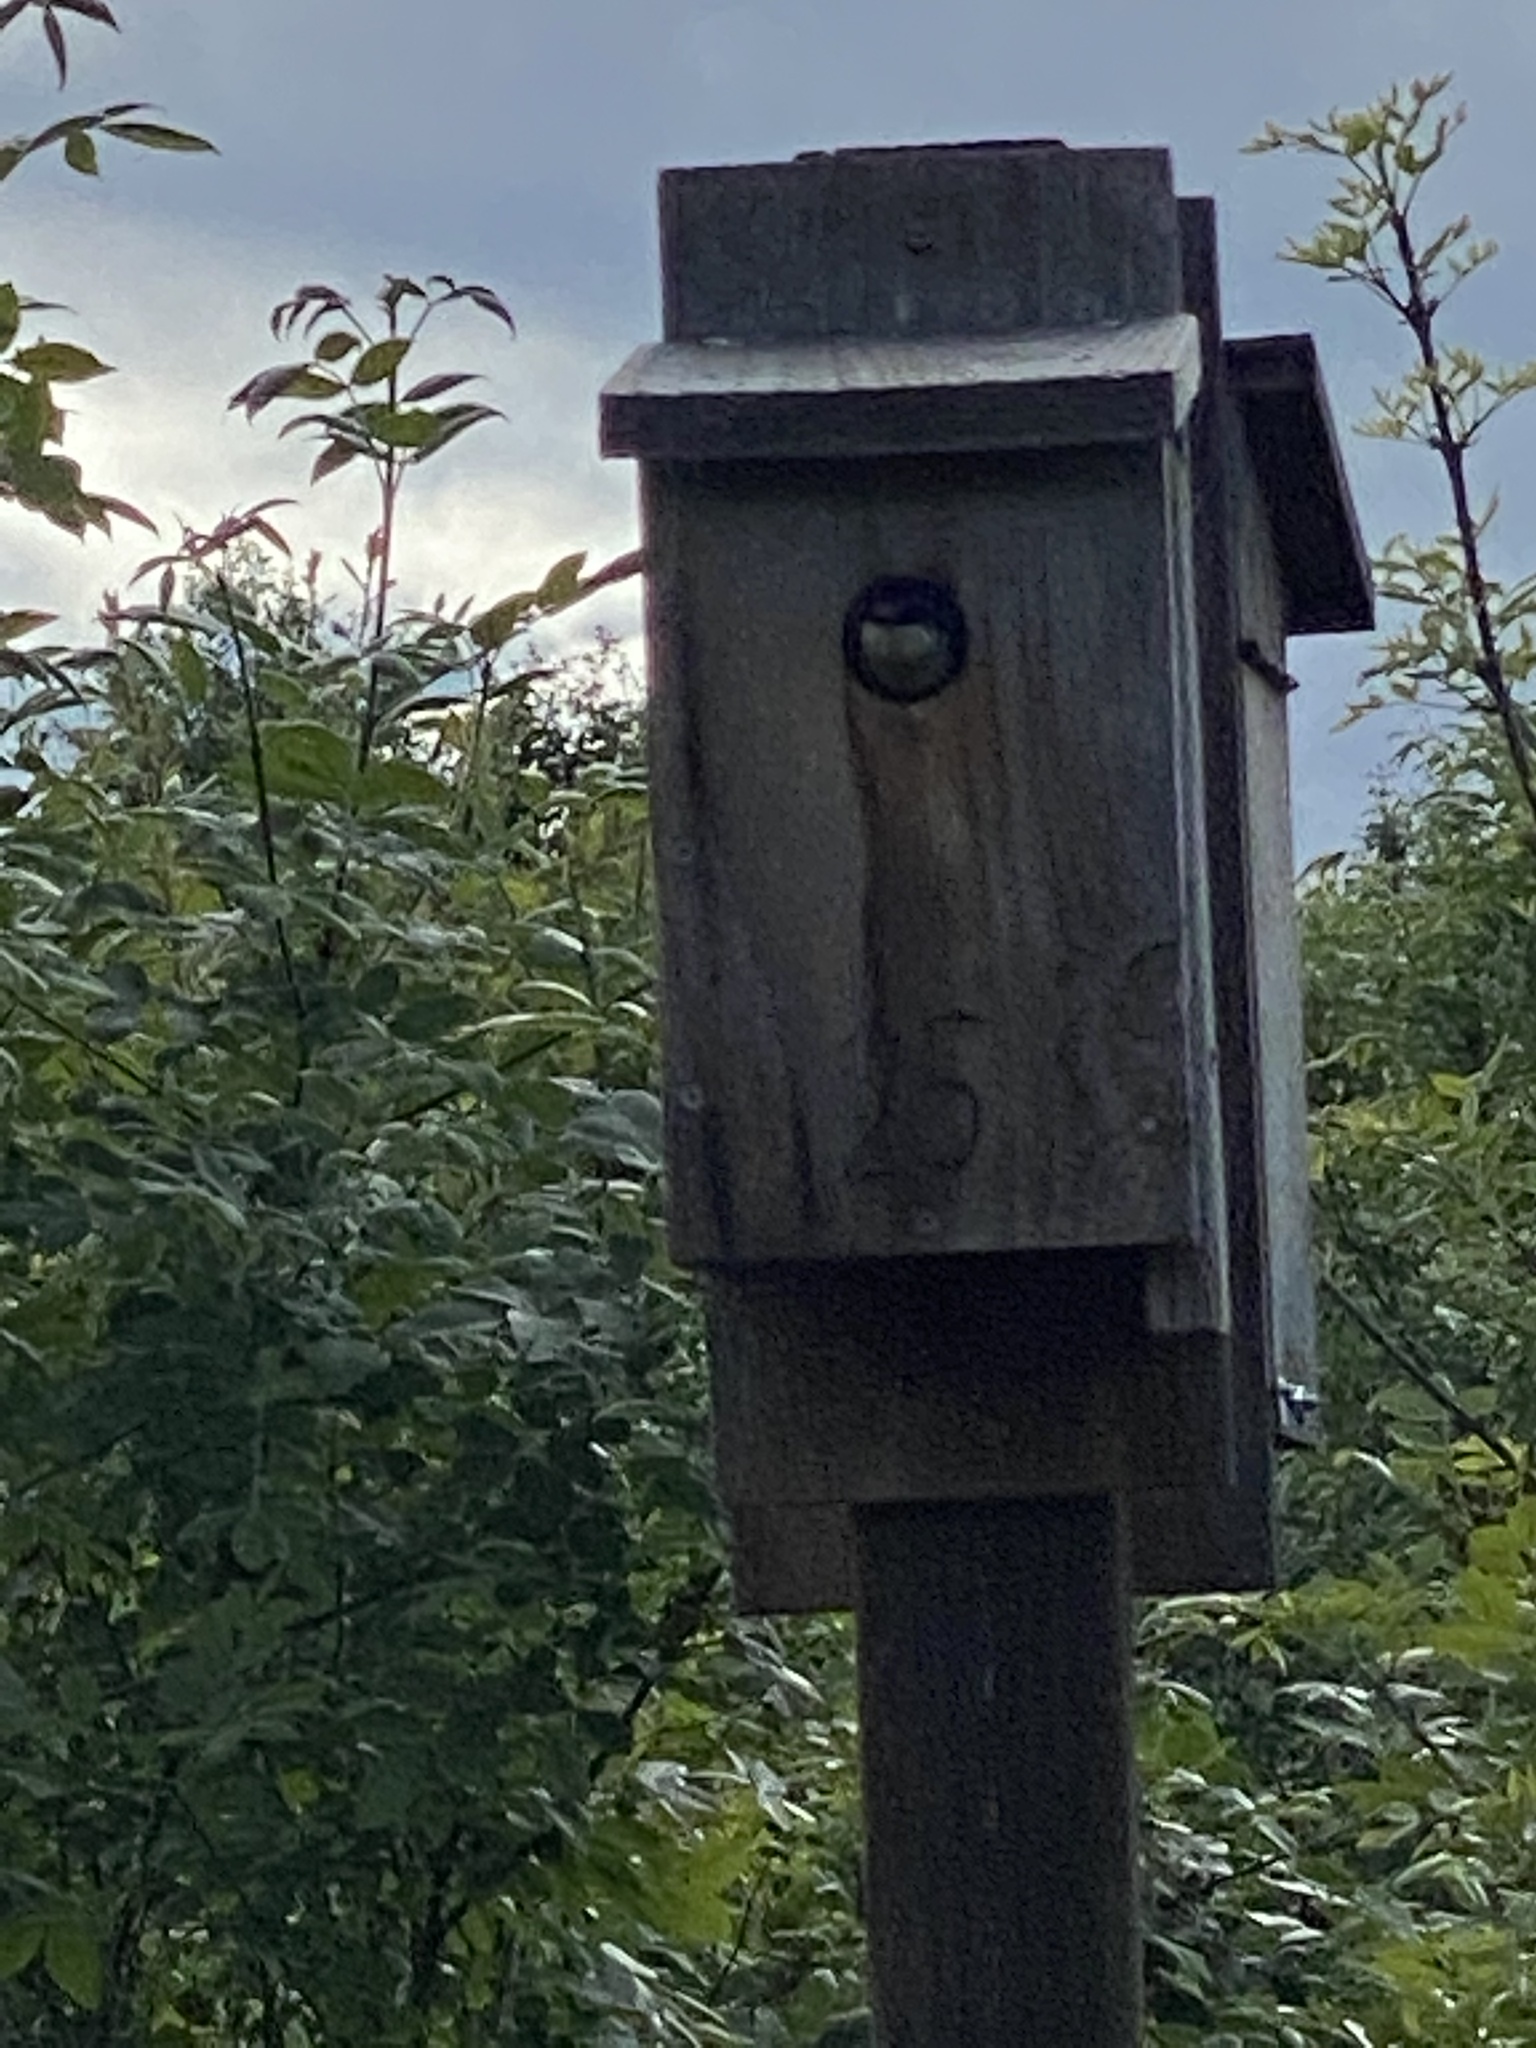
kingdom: Animalia
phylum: Chordata
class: Aves
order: Passeriformes
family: Hirundinidae
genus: Tachycineta
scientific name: Tachycineta bicolor
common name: Tree swallow
